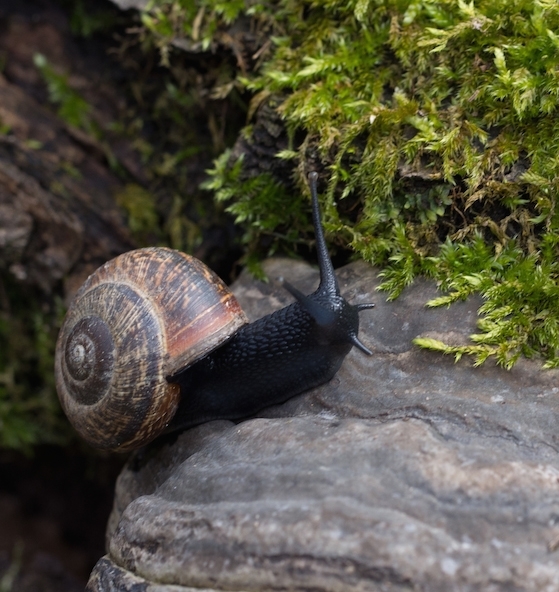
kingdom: Animalia
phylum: Mollusca
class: Gastropoda
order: Stylommatophora
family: Helicidae
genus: Arianta
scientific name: Arianta arbustorum
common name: Copse snail
